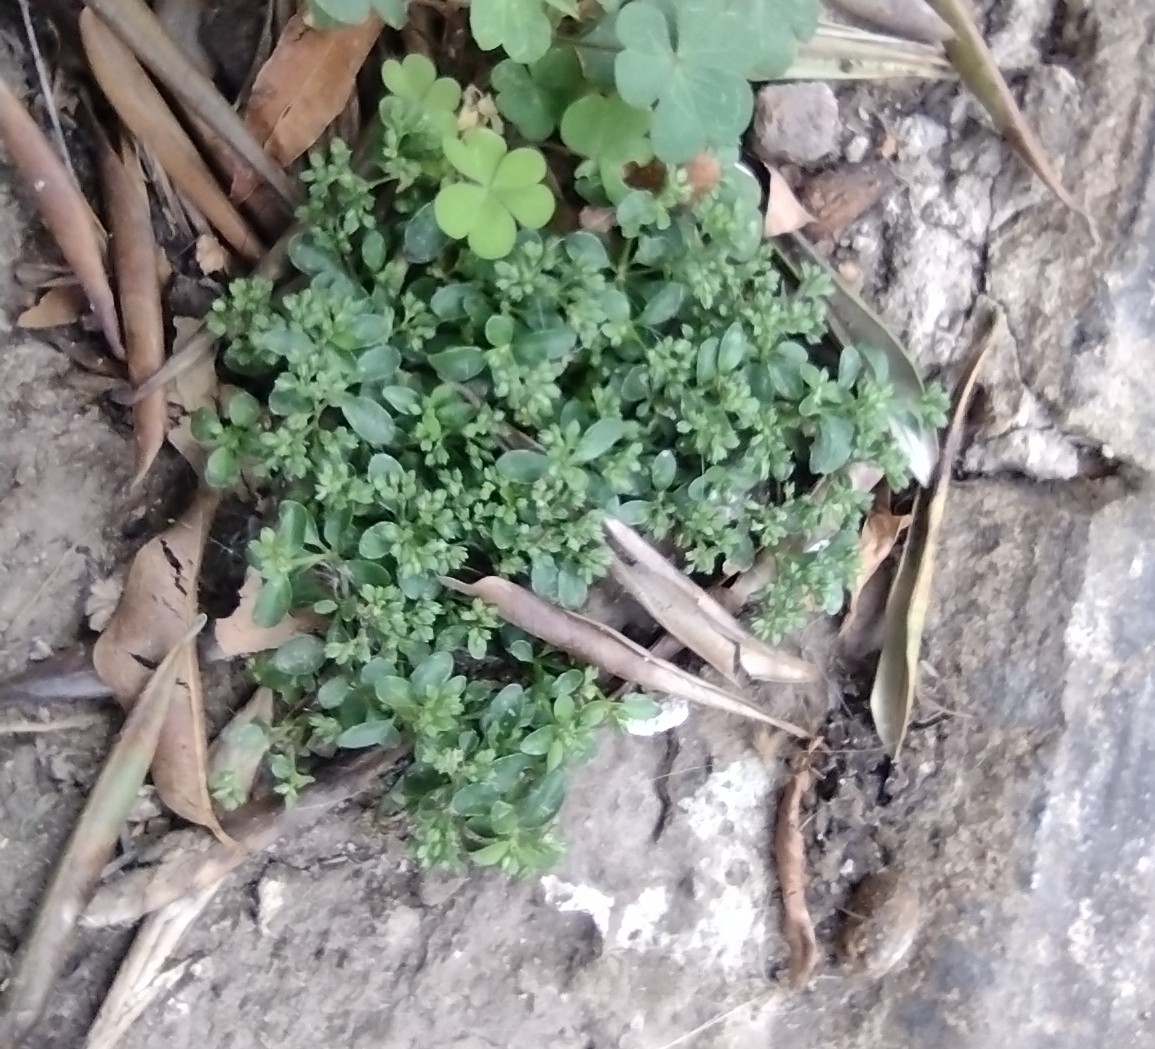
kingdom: Plantae
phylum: Tracheophyta
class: Magnoliopsida
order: Caryophyllales
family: Caryophyllaceae
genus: Polycarpon
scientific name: Polycarpon tetraphyllum
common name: Four-leaved all-seed
